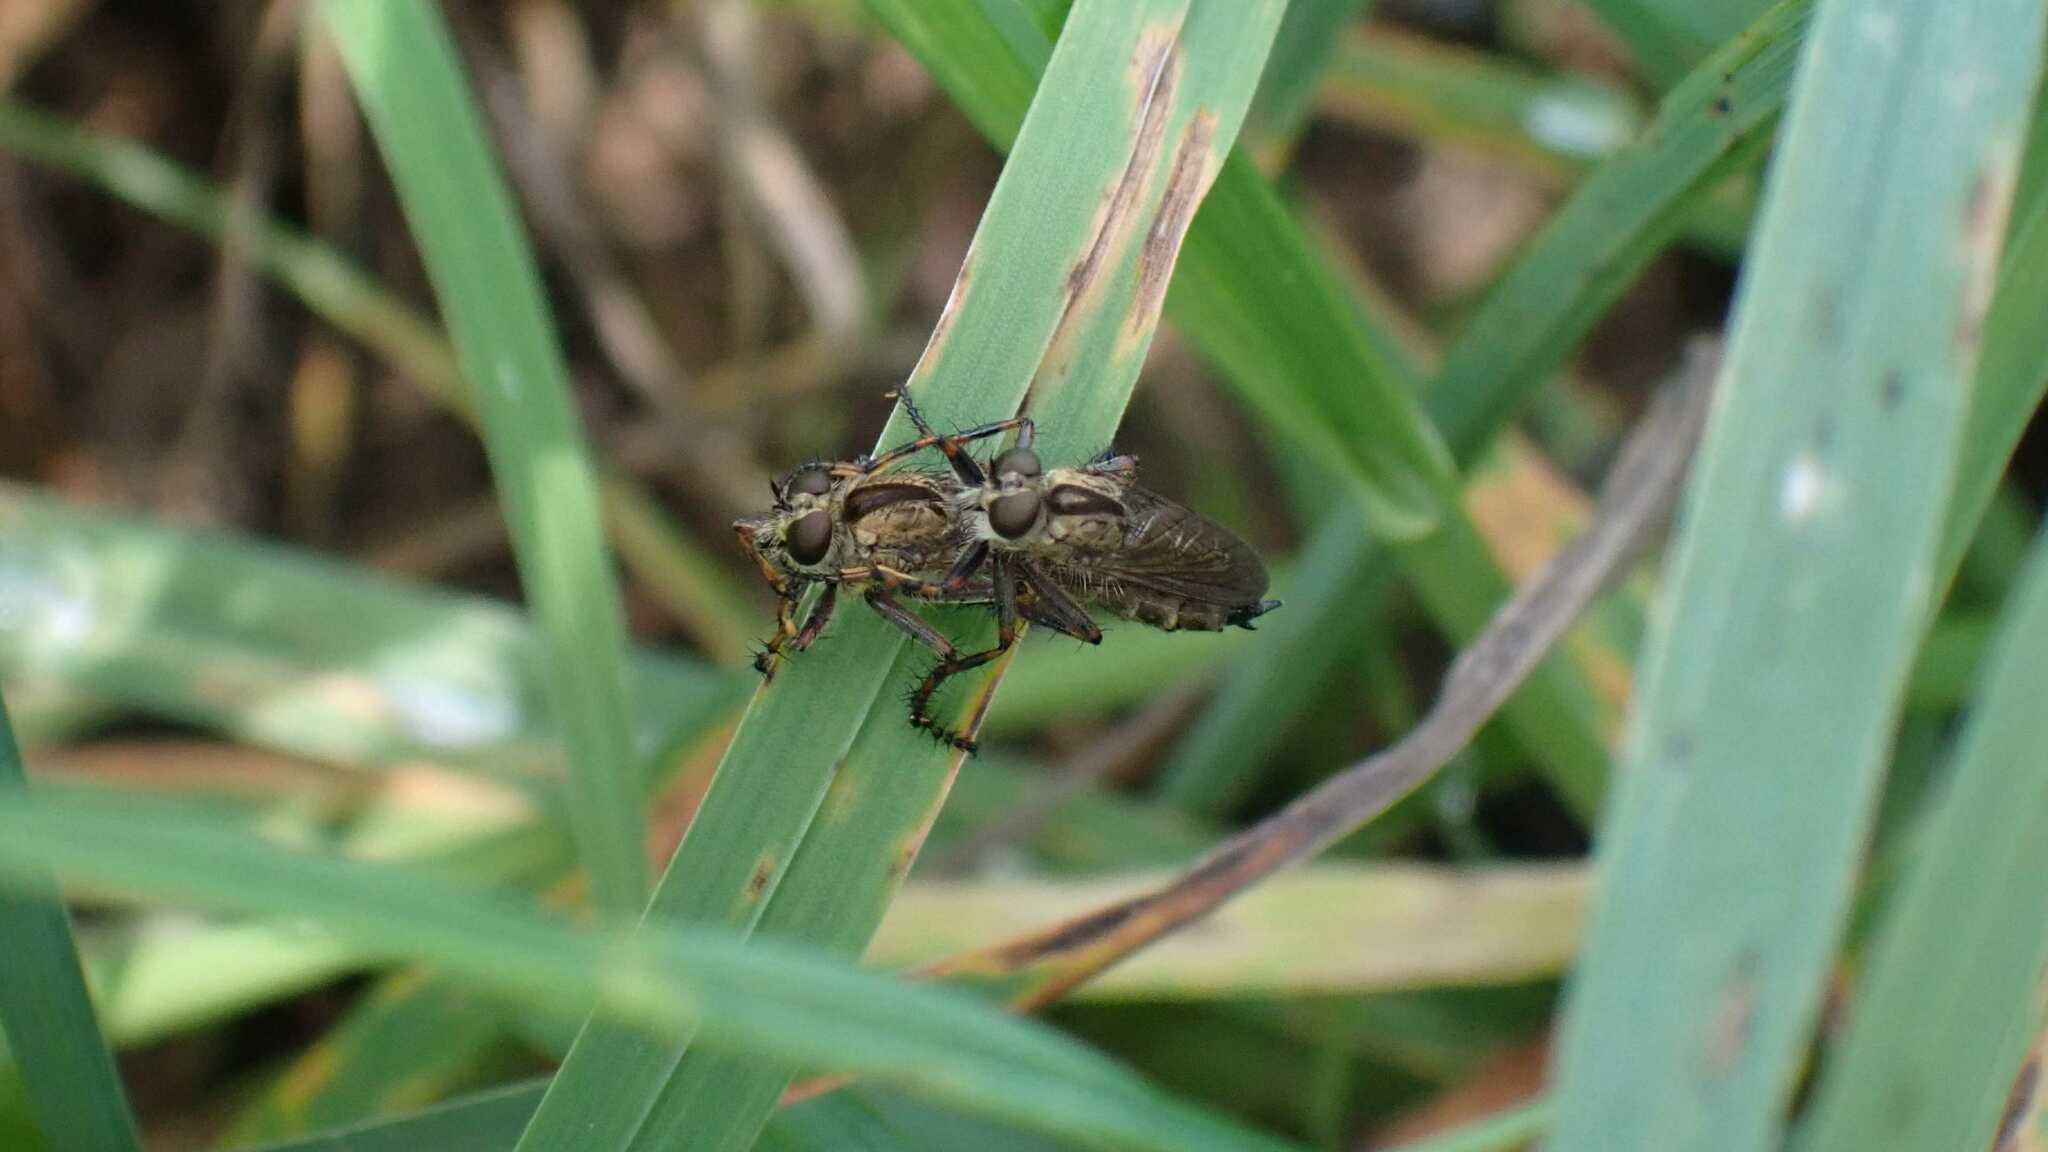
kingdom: Animalia
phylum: Arthropoda
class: Insecta
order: Diptera
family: Asilidae
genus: Epitriptus
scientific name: Epitriptus cingulatus
